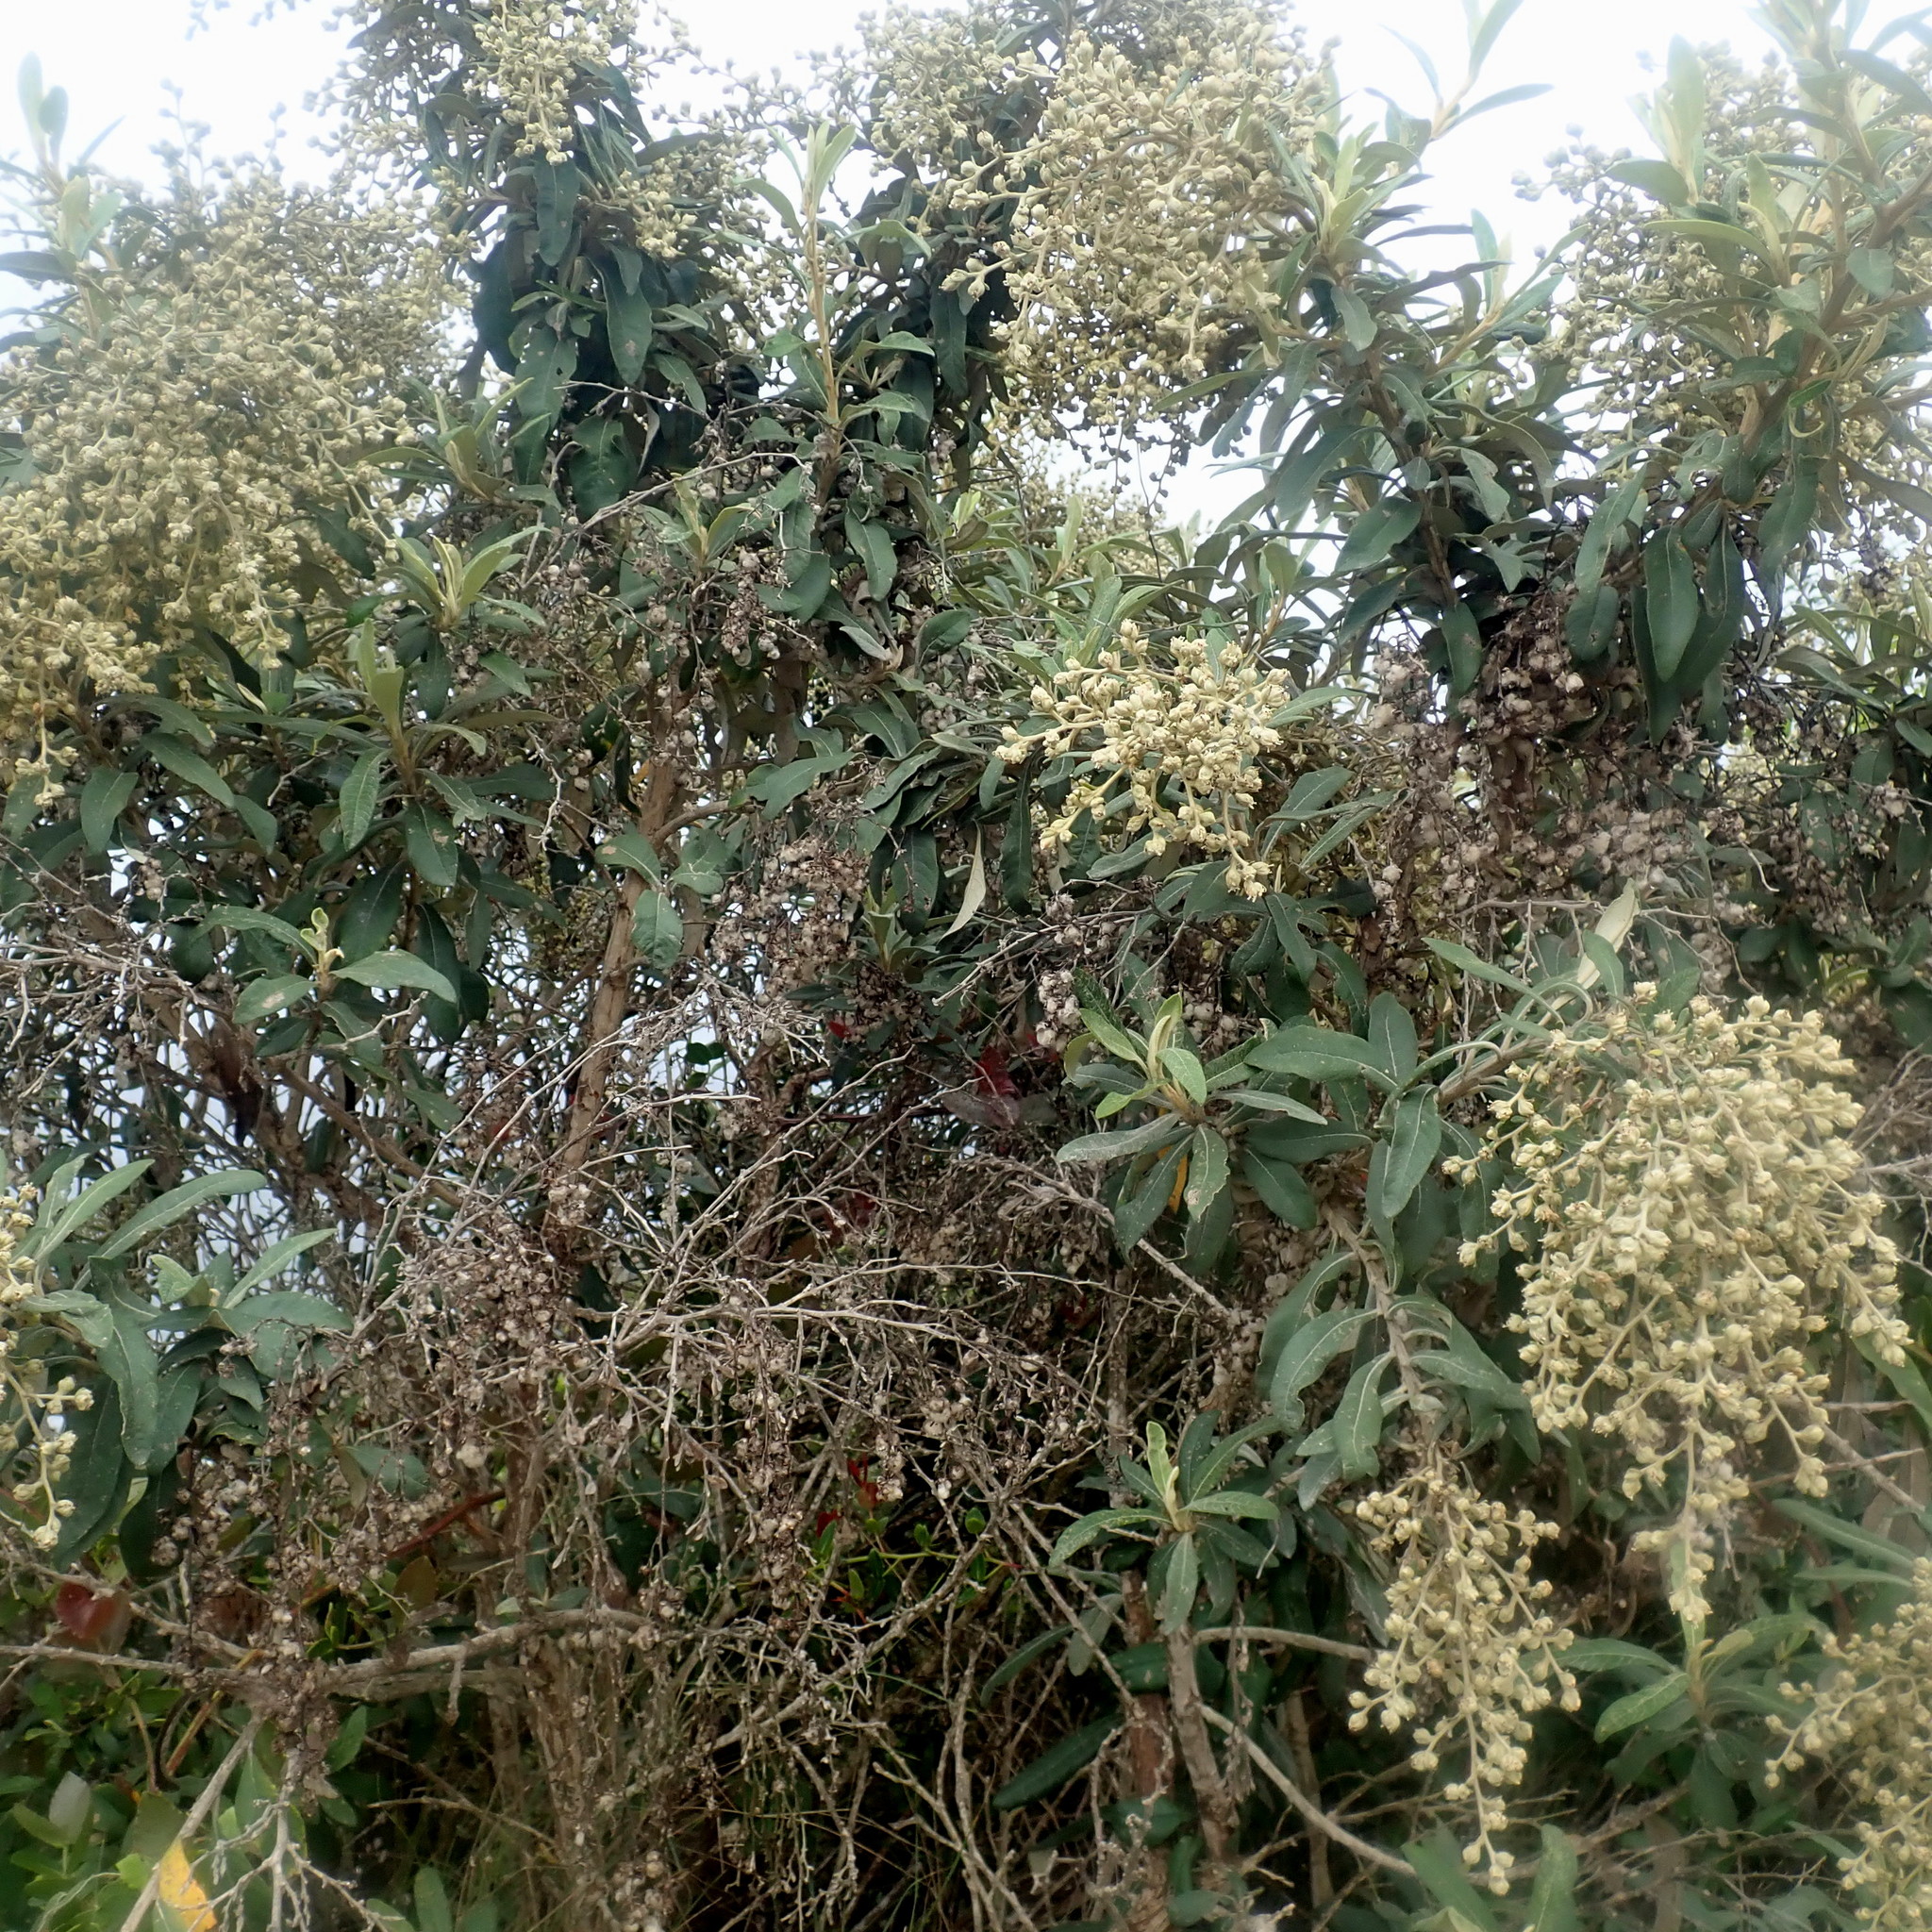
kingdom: Plantae
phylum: Tracheophyta
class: Magnoliopsida
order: Asterales
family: Asteraceae
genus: Tarchonanthus
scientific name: Tarchonanthus littoralis
